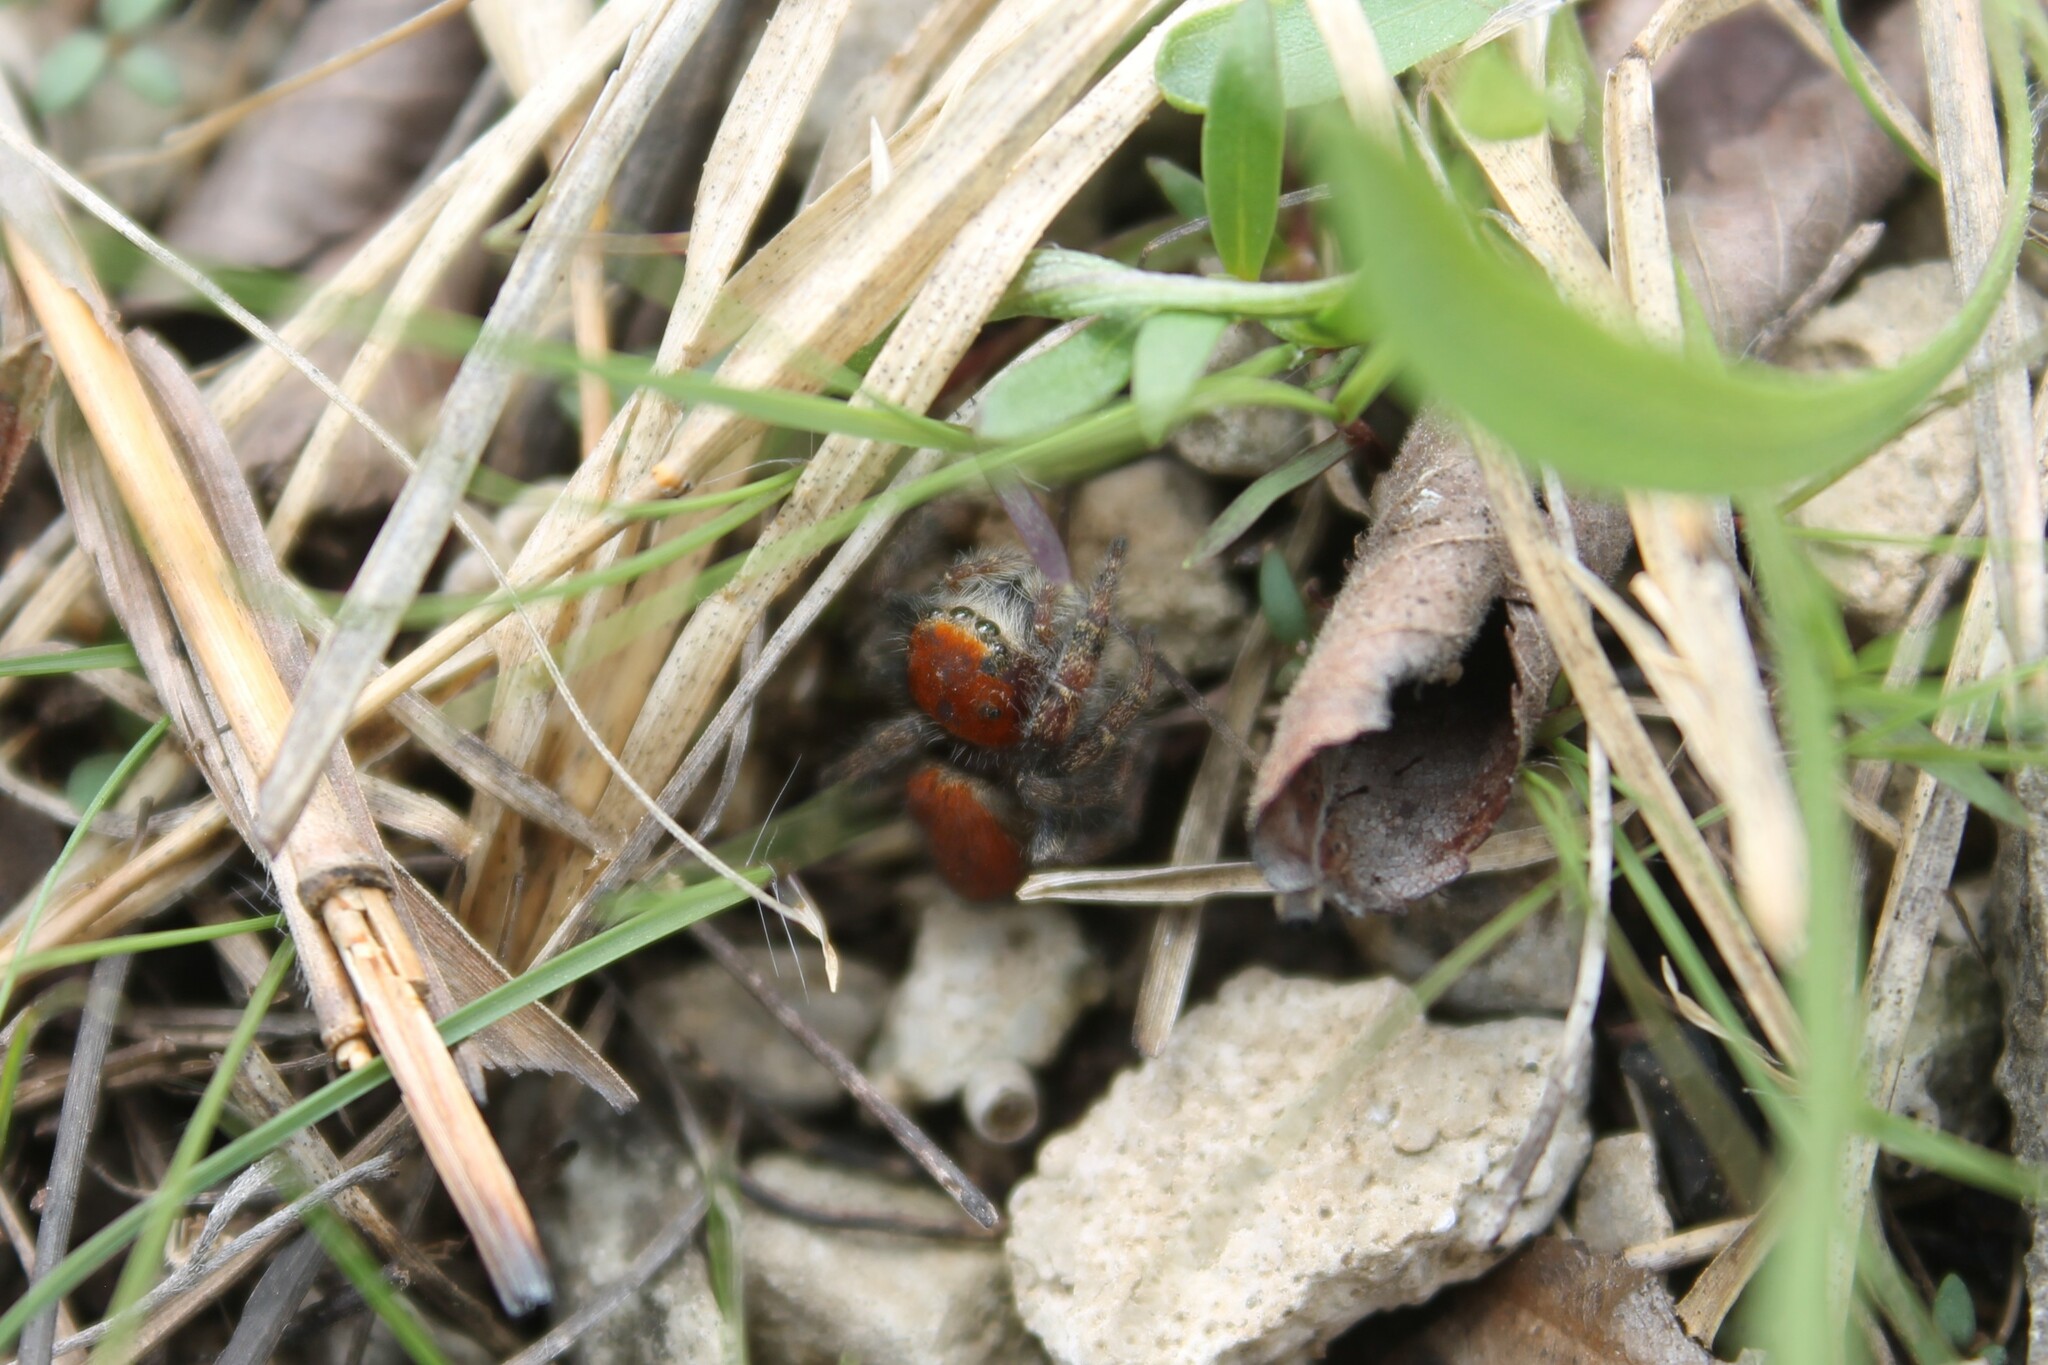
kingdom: Animalia
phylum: Arthropoda
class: Arachnida
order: Araneae
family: Salticidae
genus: Phidippus
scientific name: Phidippus cardinalis
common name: Cardinal jumper
